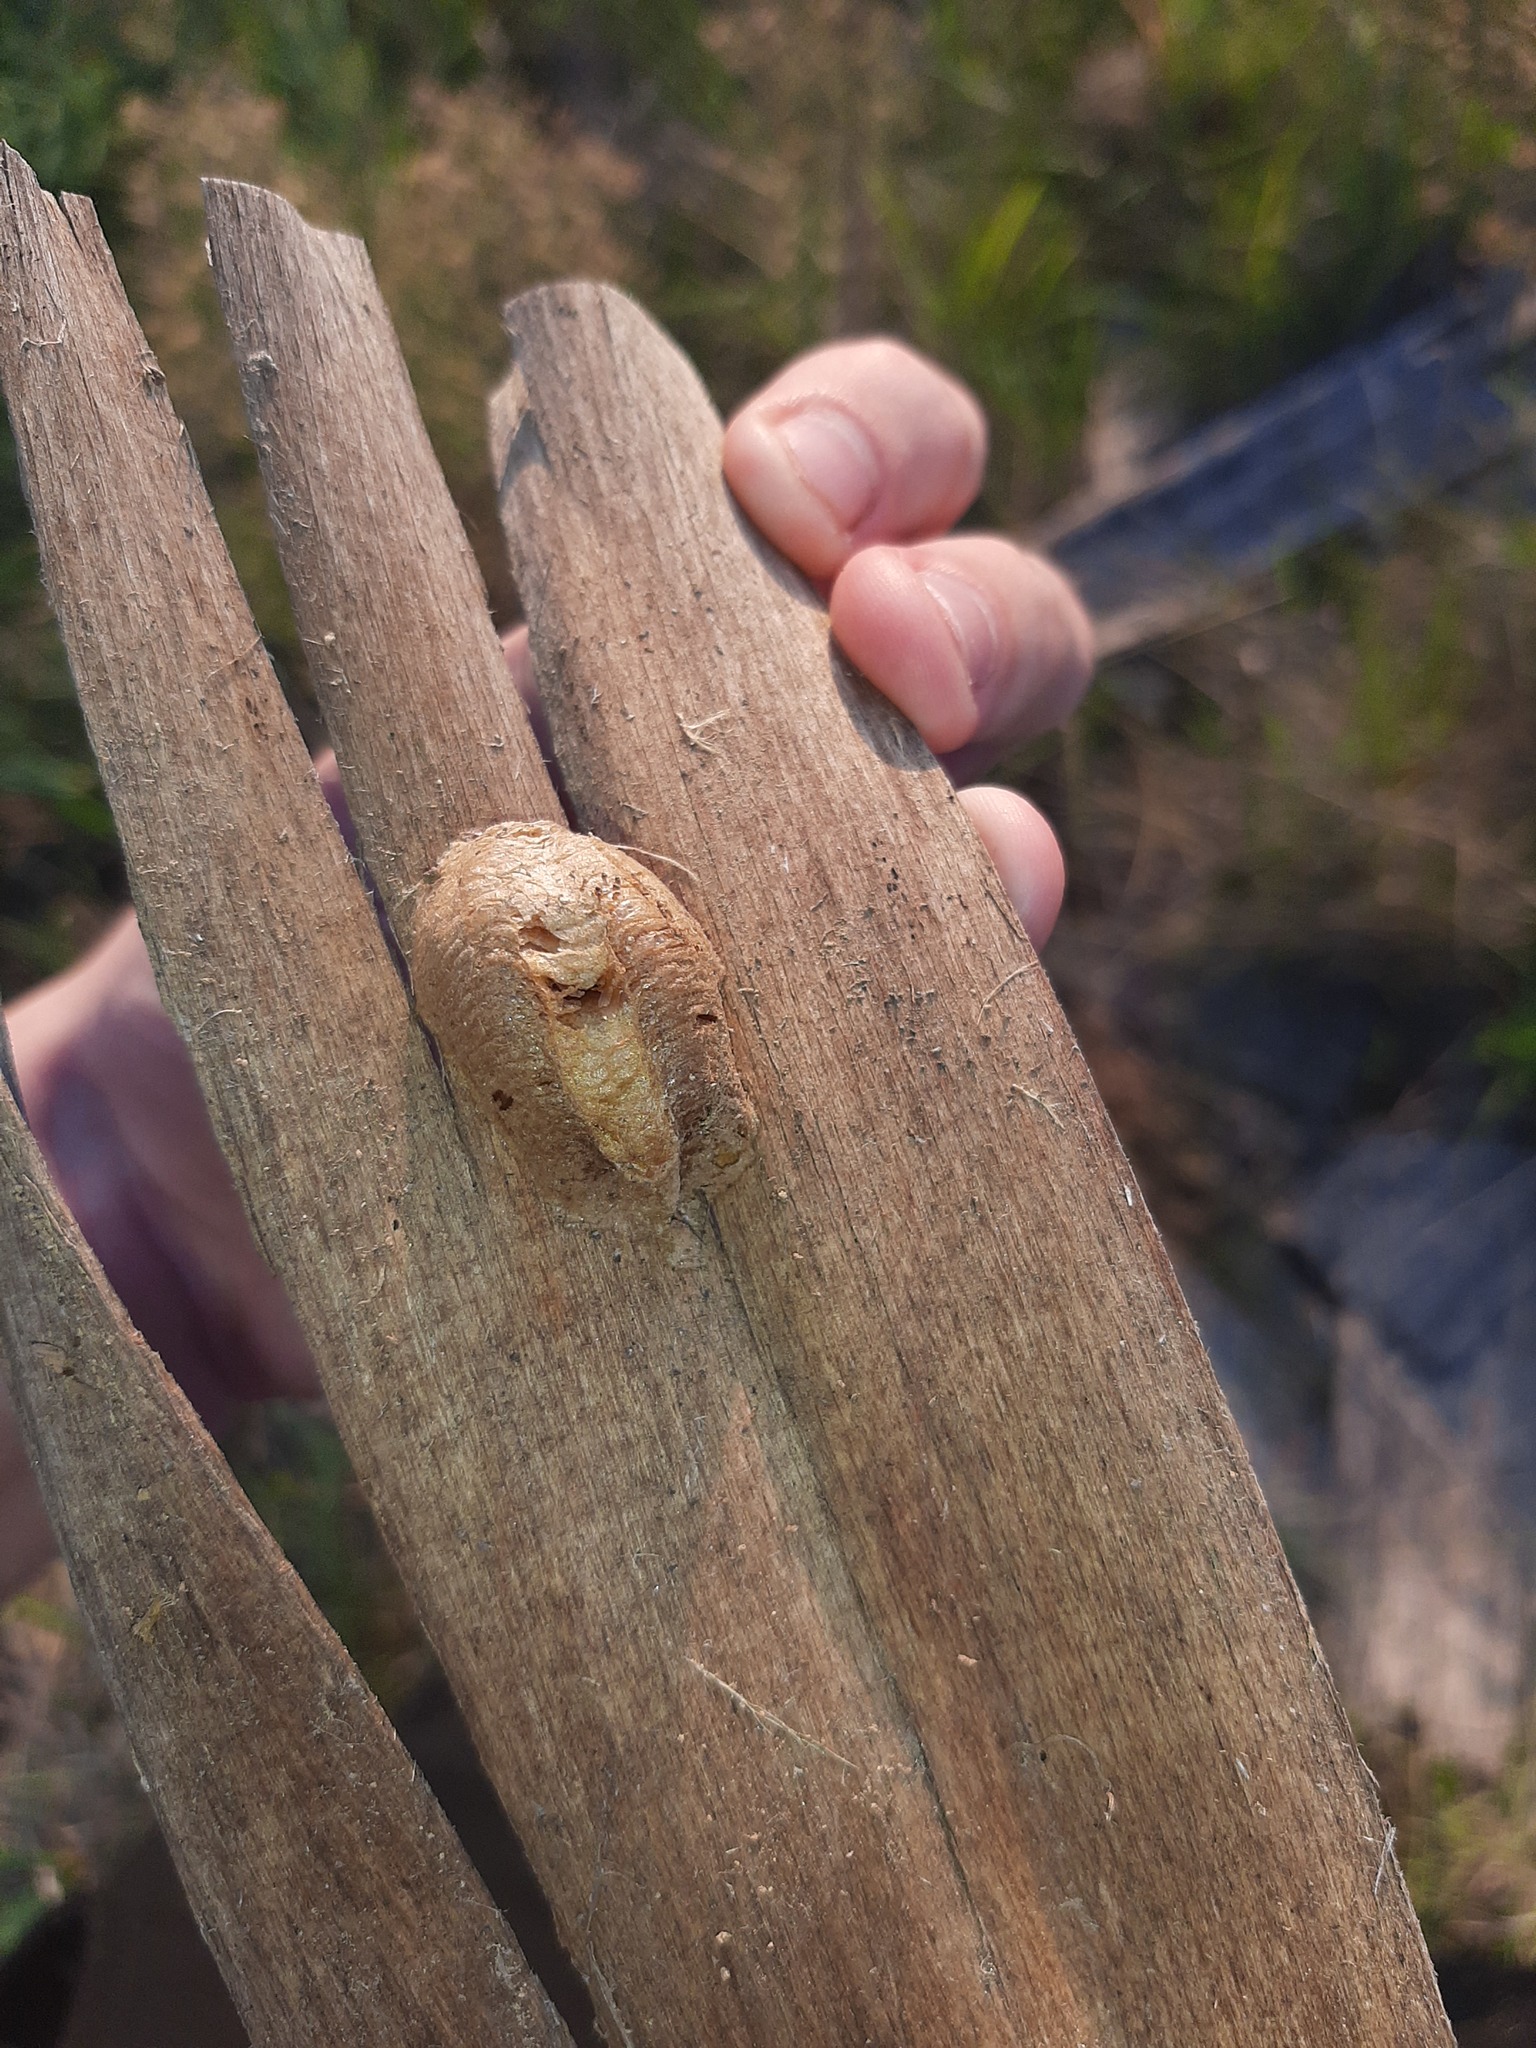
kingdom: Animalia
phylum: Arthropoda
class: Insecta
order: Mantodea
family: Mantidae
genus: Mantis
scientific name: Mantis religiosa
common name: Praying mantis
